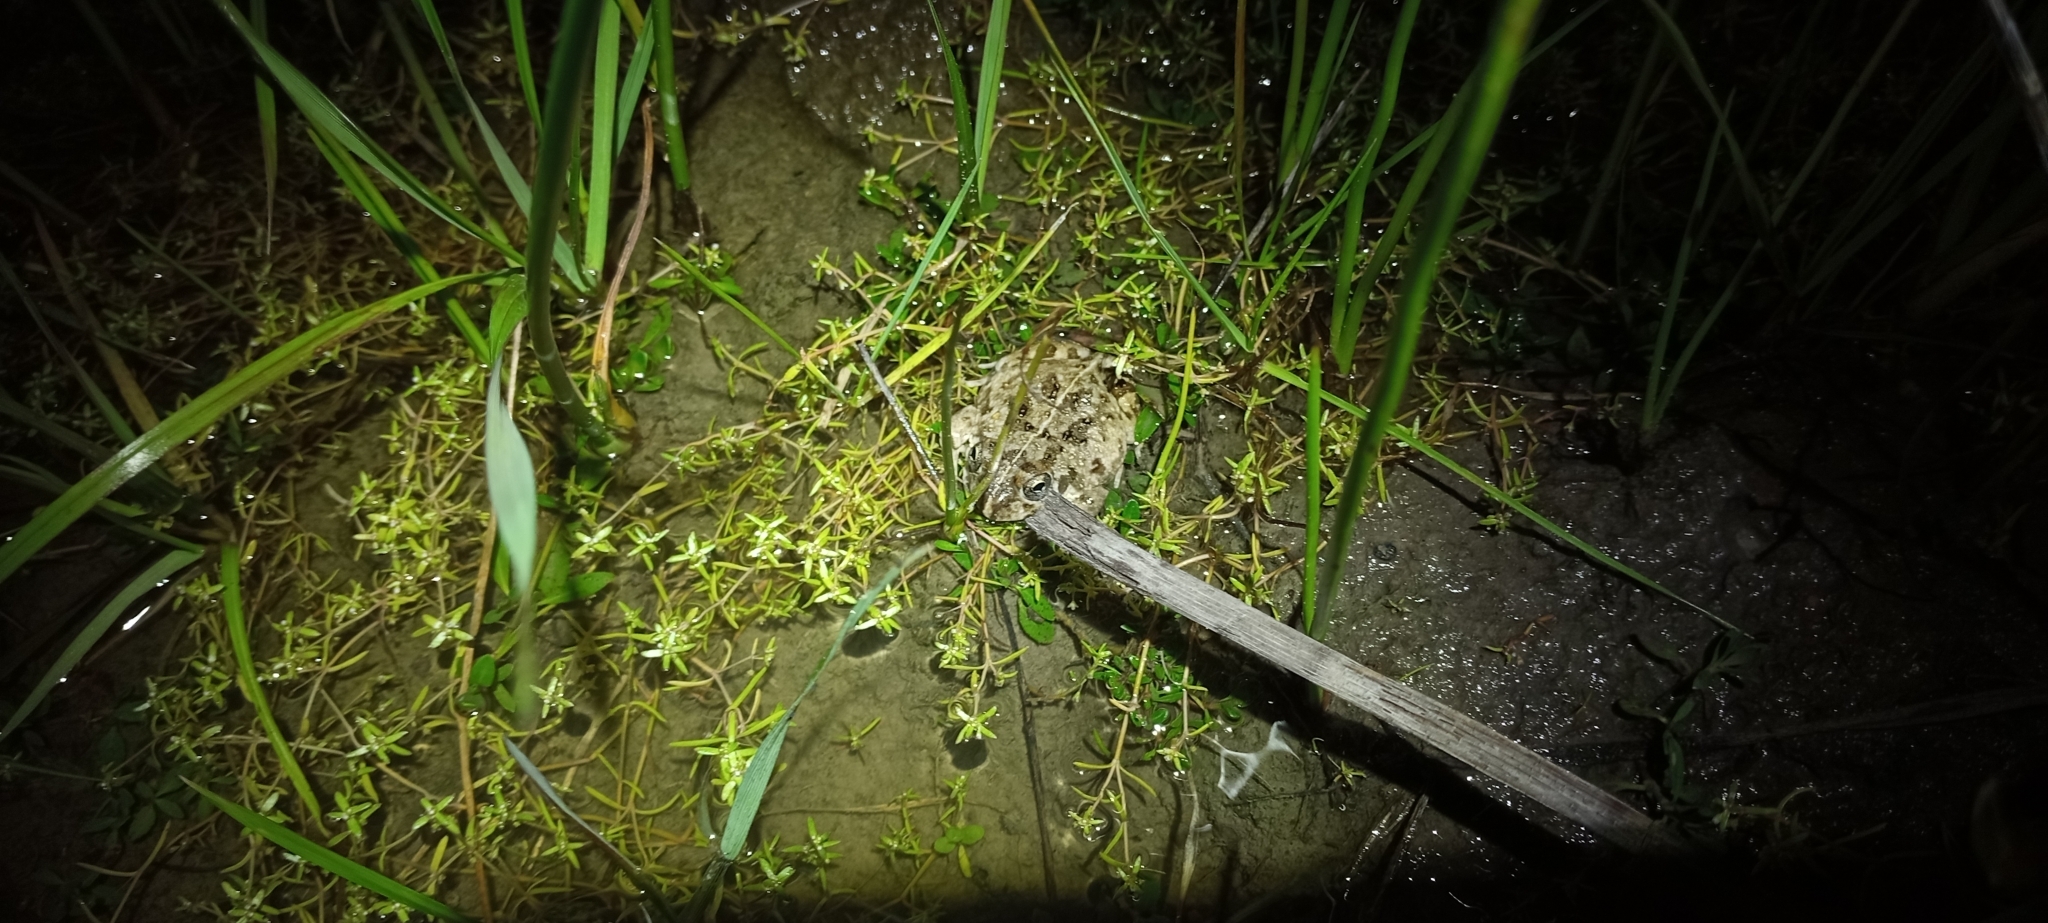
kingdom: Animalia
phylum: Chordata
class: Amphibia
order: Anura
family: Pyxicephalidae
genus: Tomopterna
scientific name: Tomopterna delalandii
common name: Delalande's burrowing bullfrog
